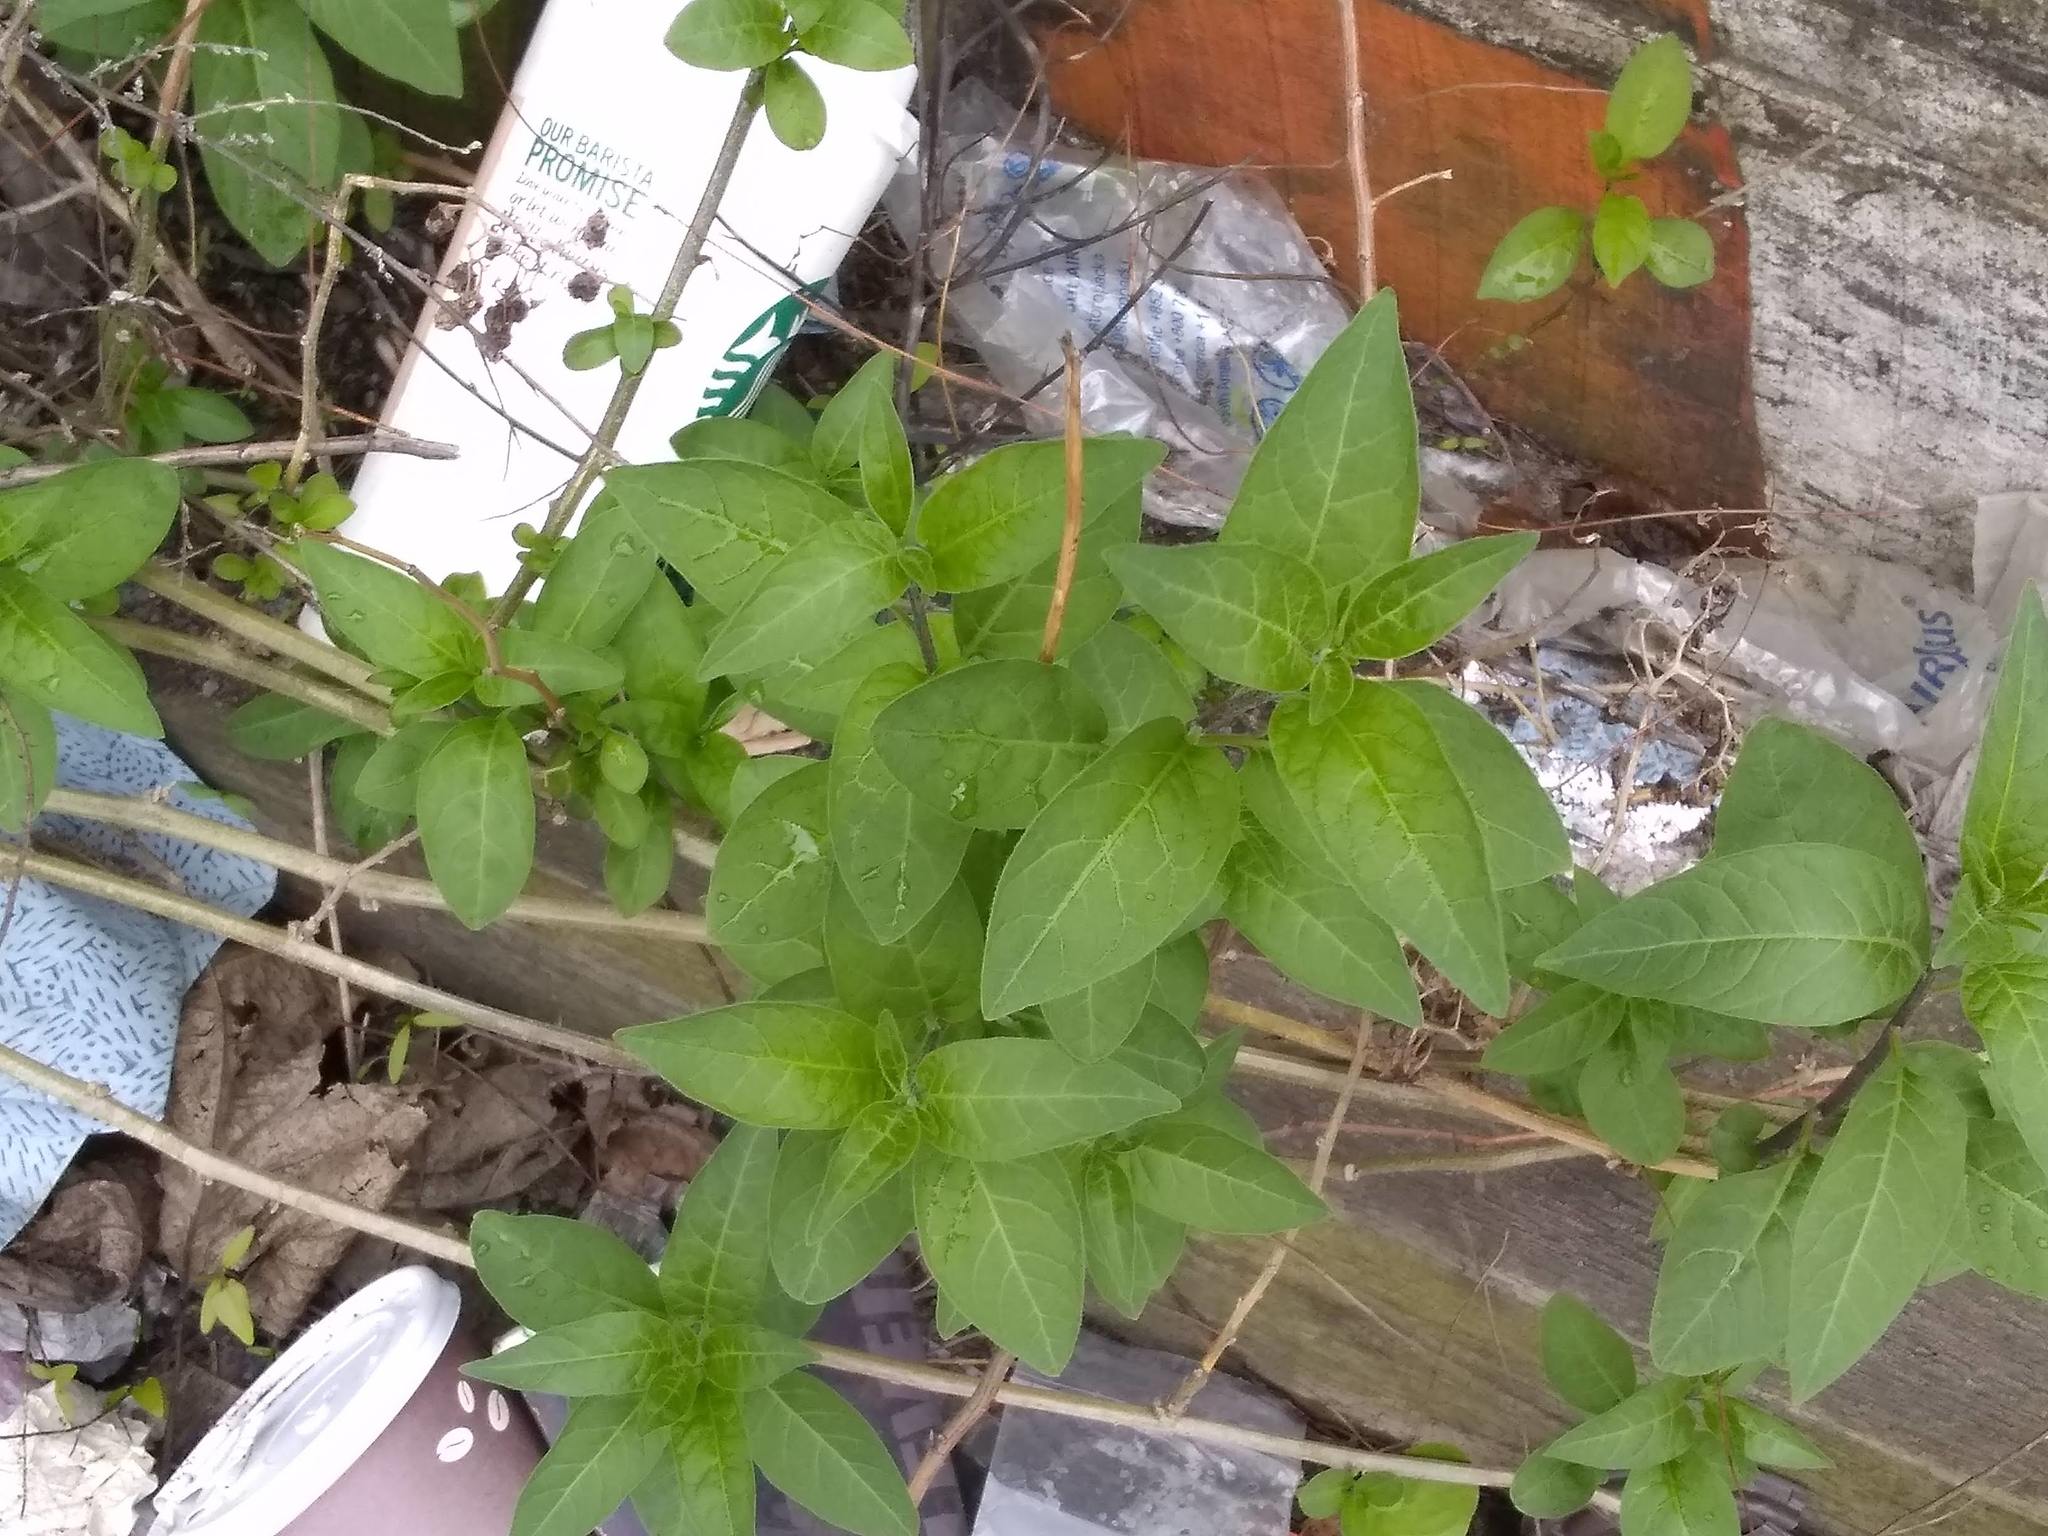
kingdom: Plantae
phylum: Tracheophyta
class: Magnoliopsida
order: Solanales
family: Solanaceae
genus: Solanum
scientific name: Solanum dulcamara
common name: Climbing nightshade
